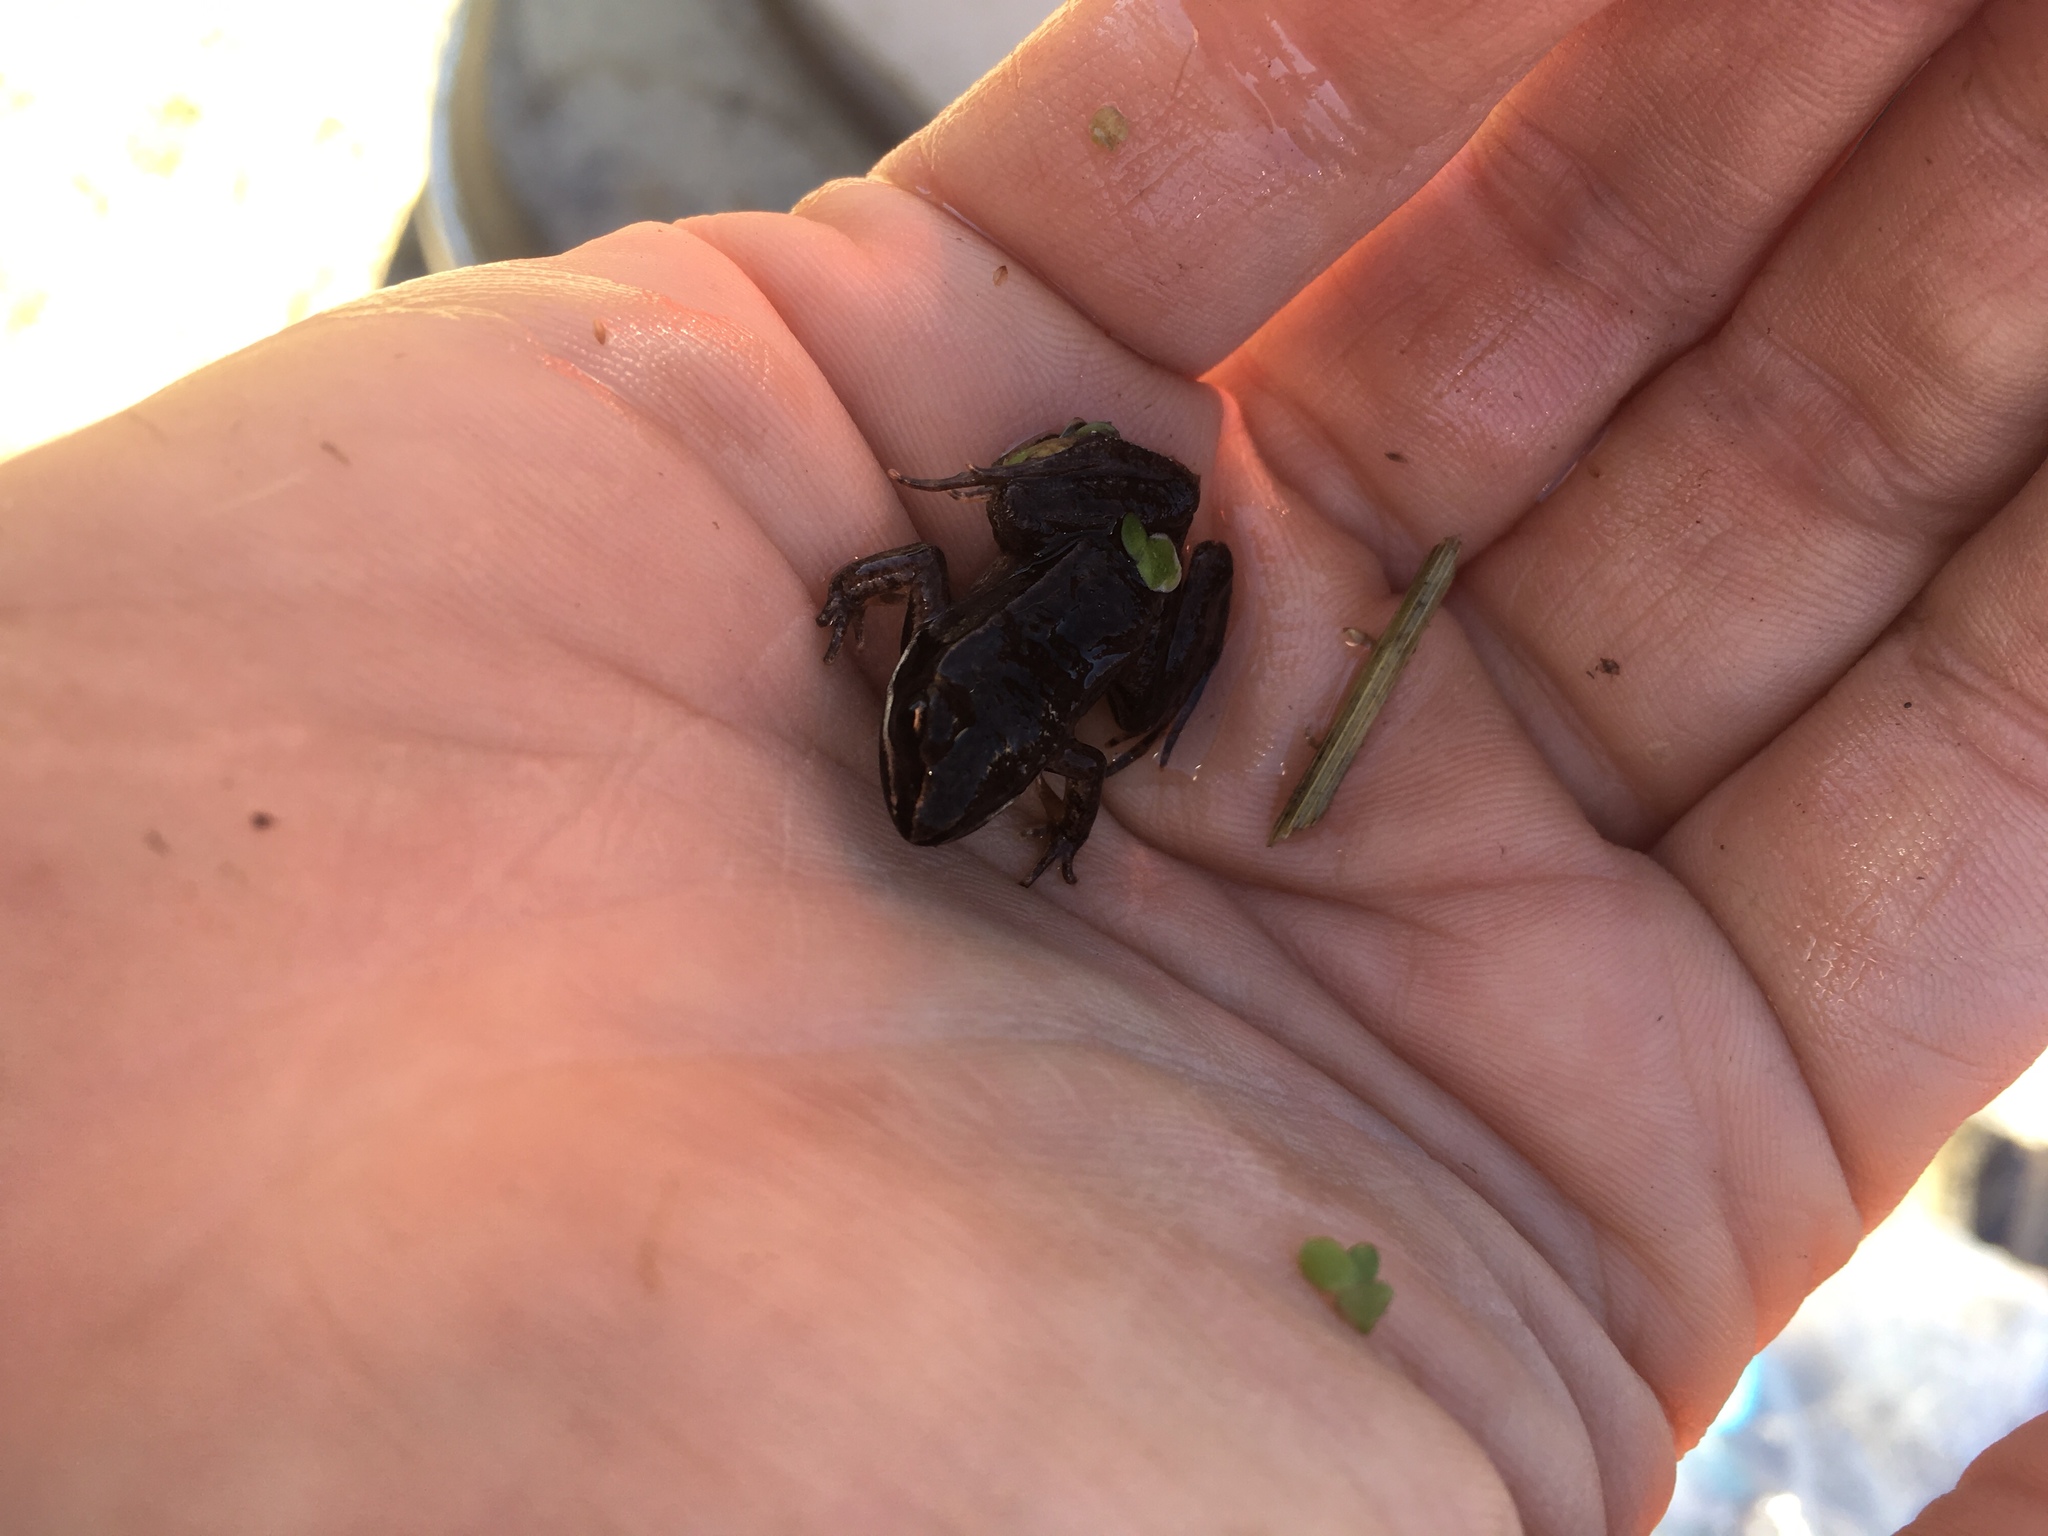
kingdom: Animalia
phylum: Chordata
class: Amphibia
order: Anura
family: Ranidae
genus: Lithobates
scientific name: Lithobates sylvaticus
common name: Wood frog
